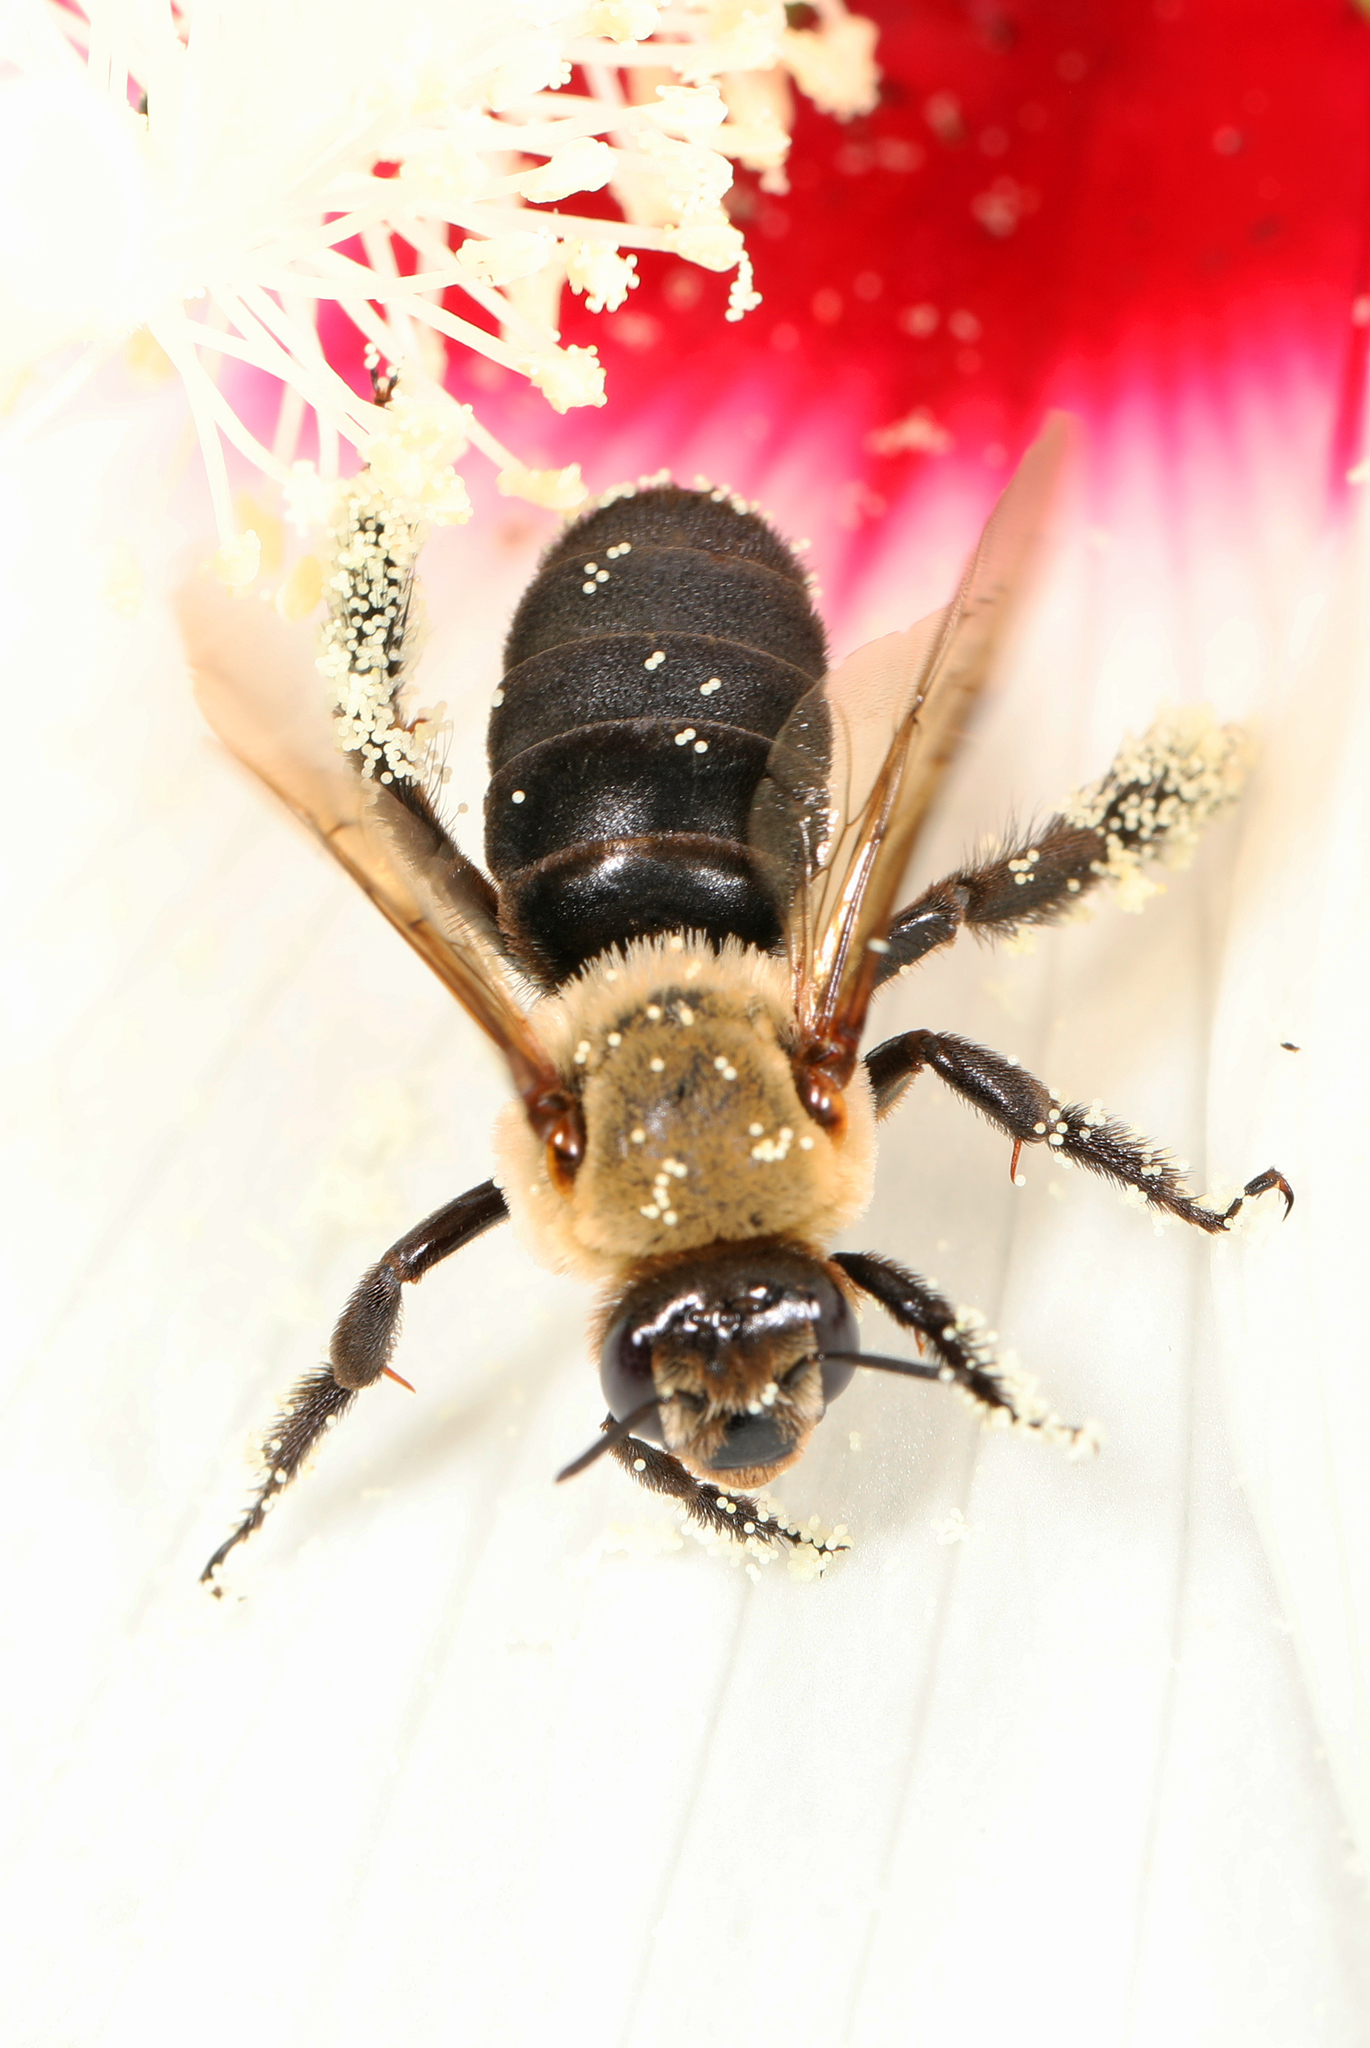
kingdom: Animalia
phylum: Arthropoda
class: Insecta
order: Hymenoptera
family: Apidae
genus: Ptilothrix
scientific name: Ptilothrix bombiformis
